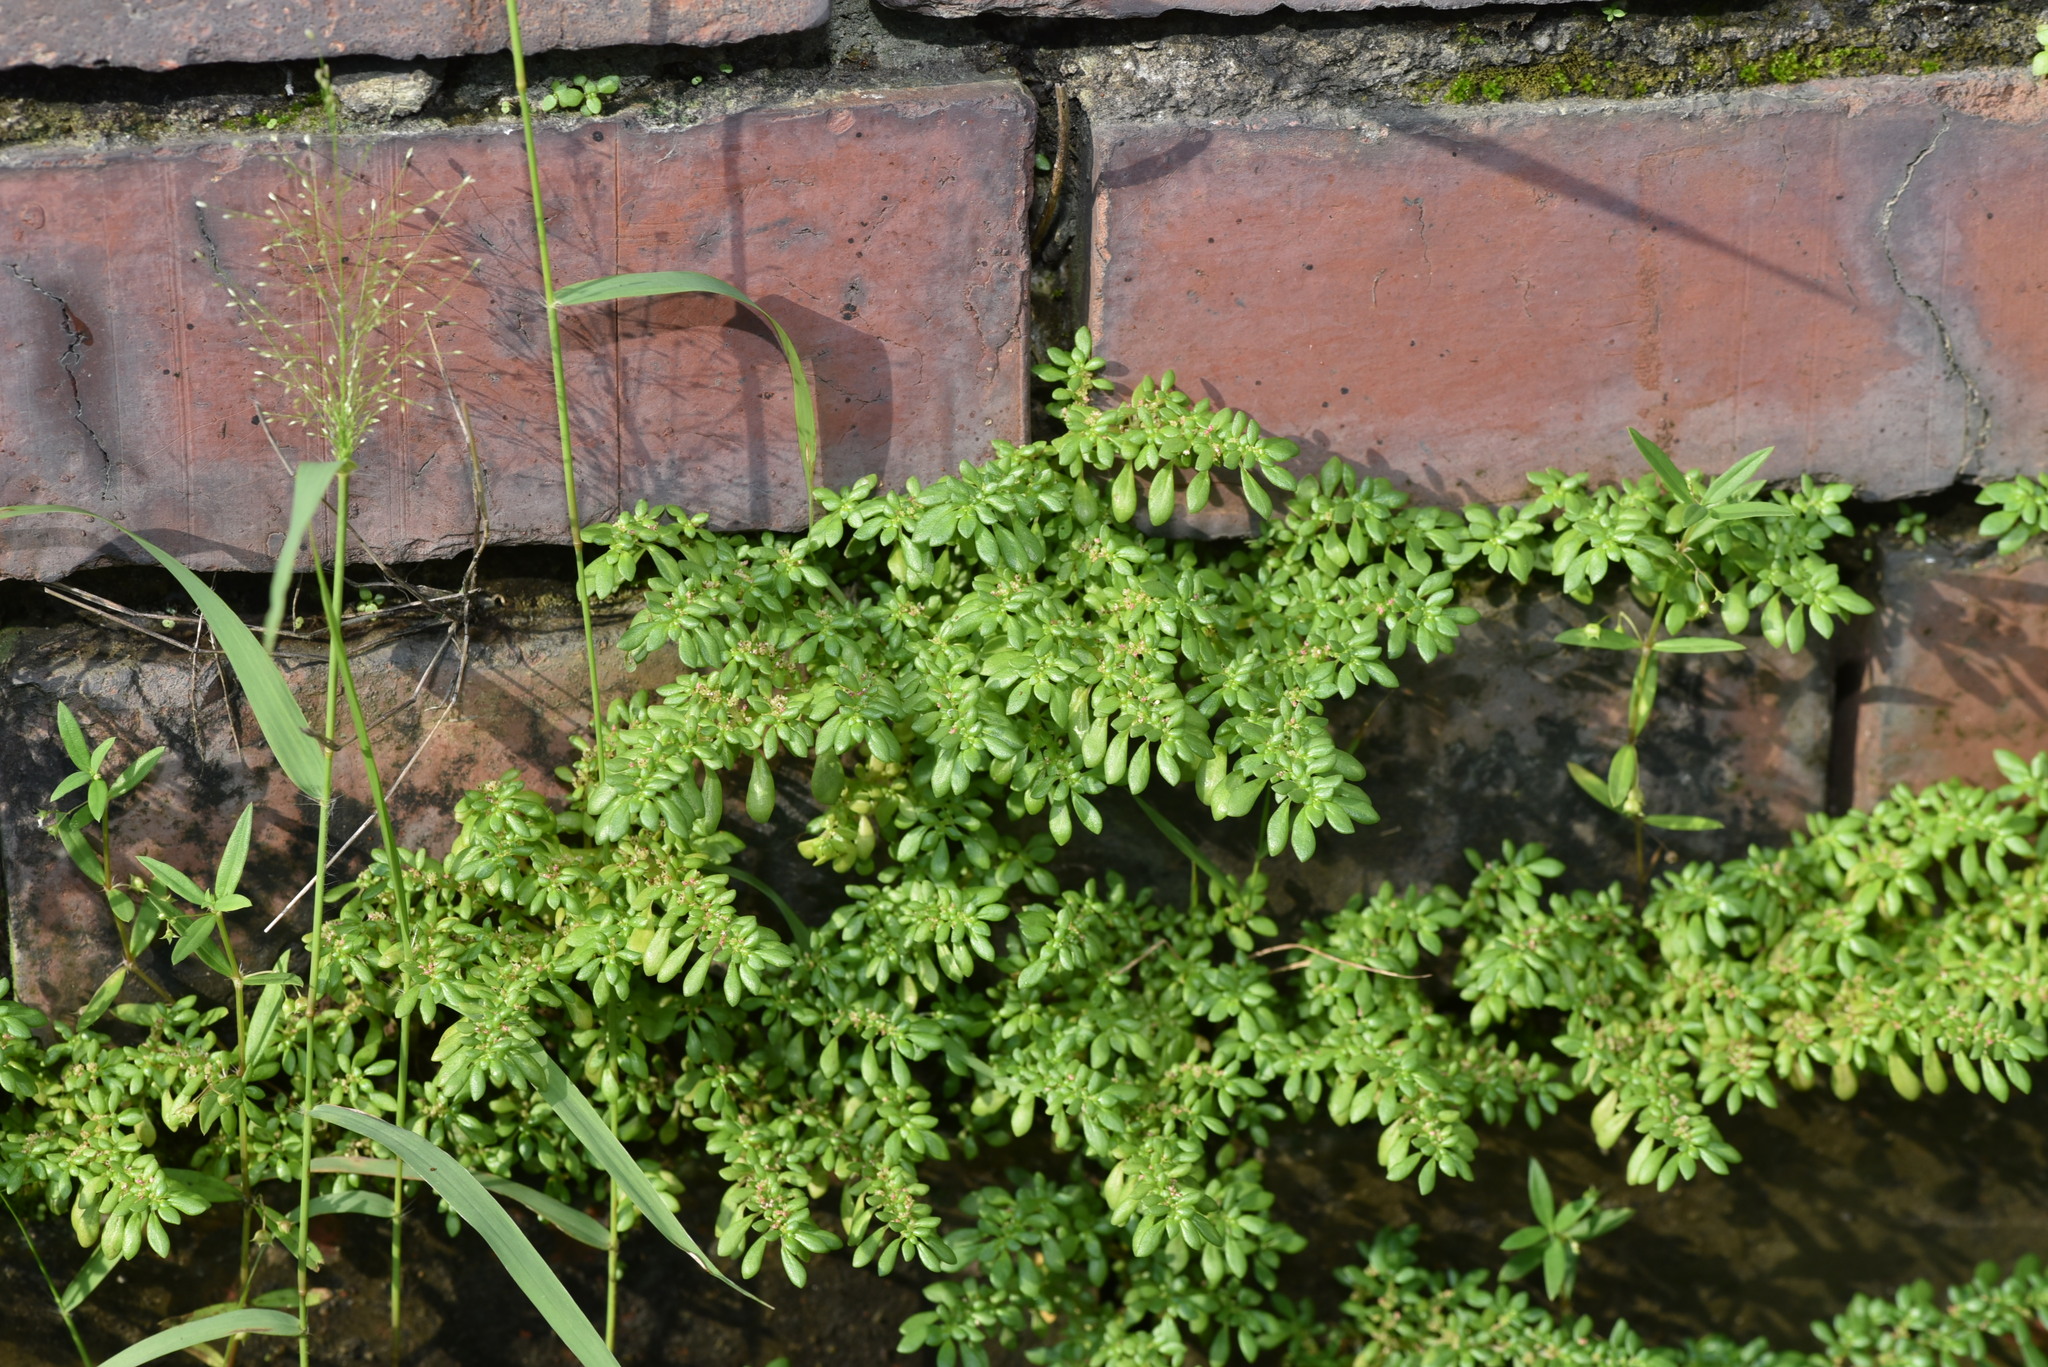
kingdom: Plantae
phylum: Tracheophyta
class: Magnoliopsida
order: Rosales
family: Urticaceae
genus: Pilea
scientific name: Pilea microphylla
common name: Artillery-plant
